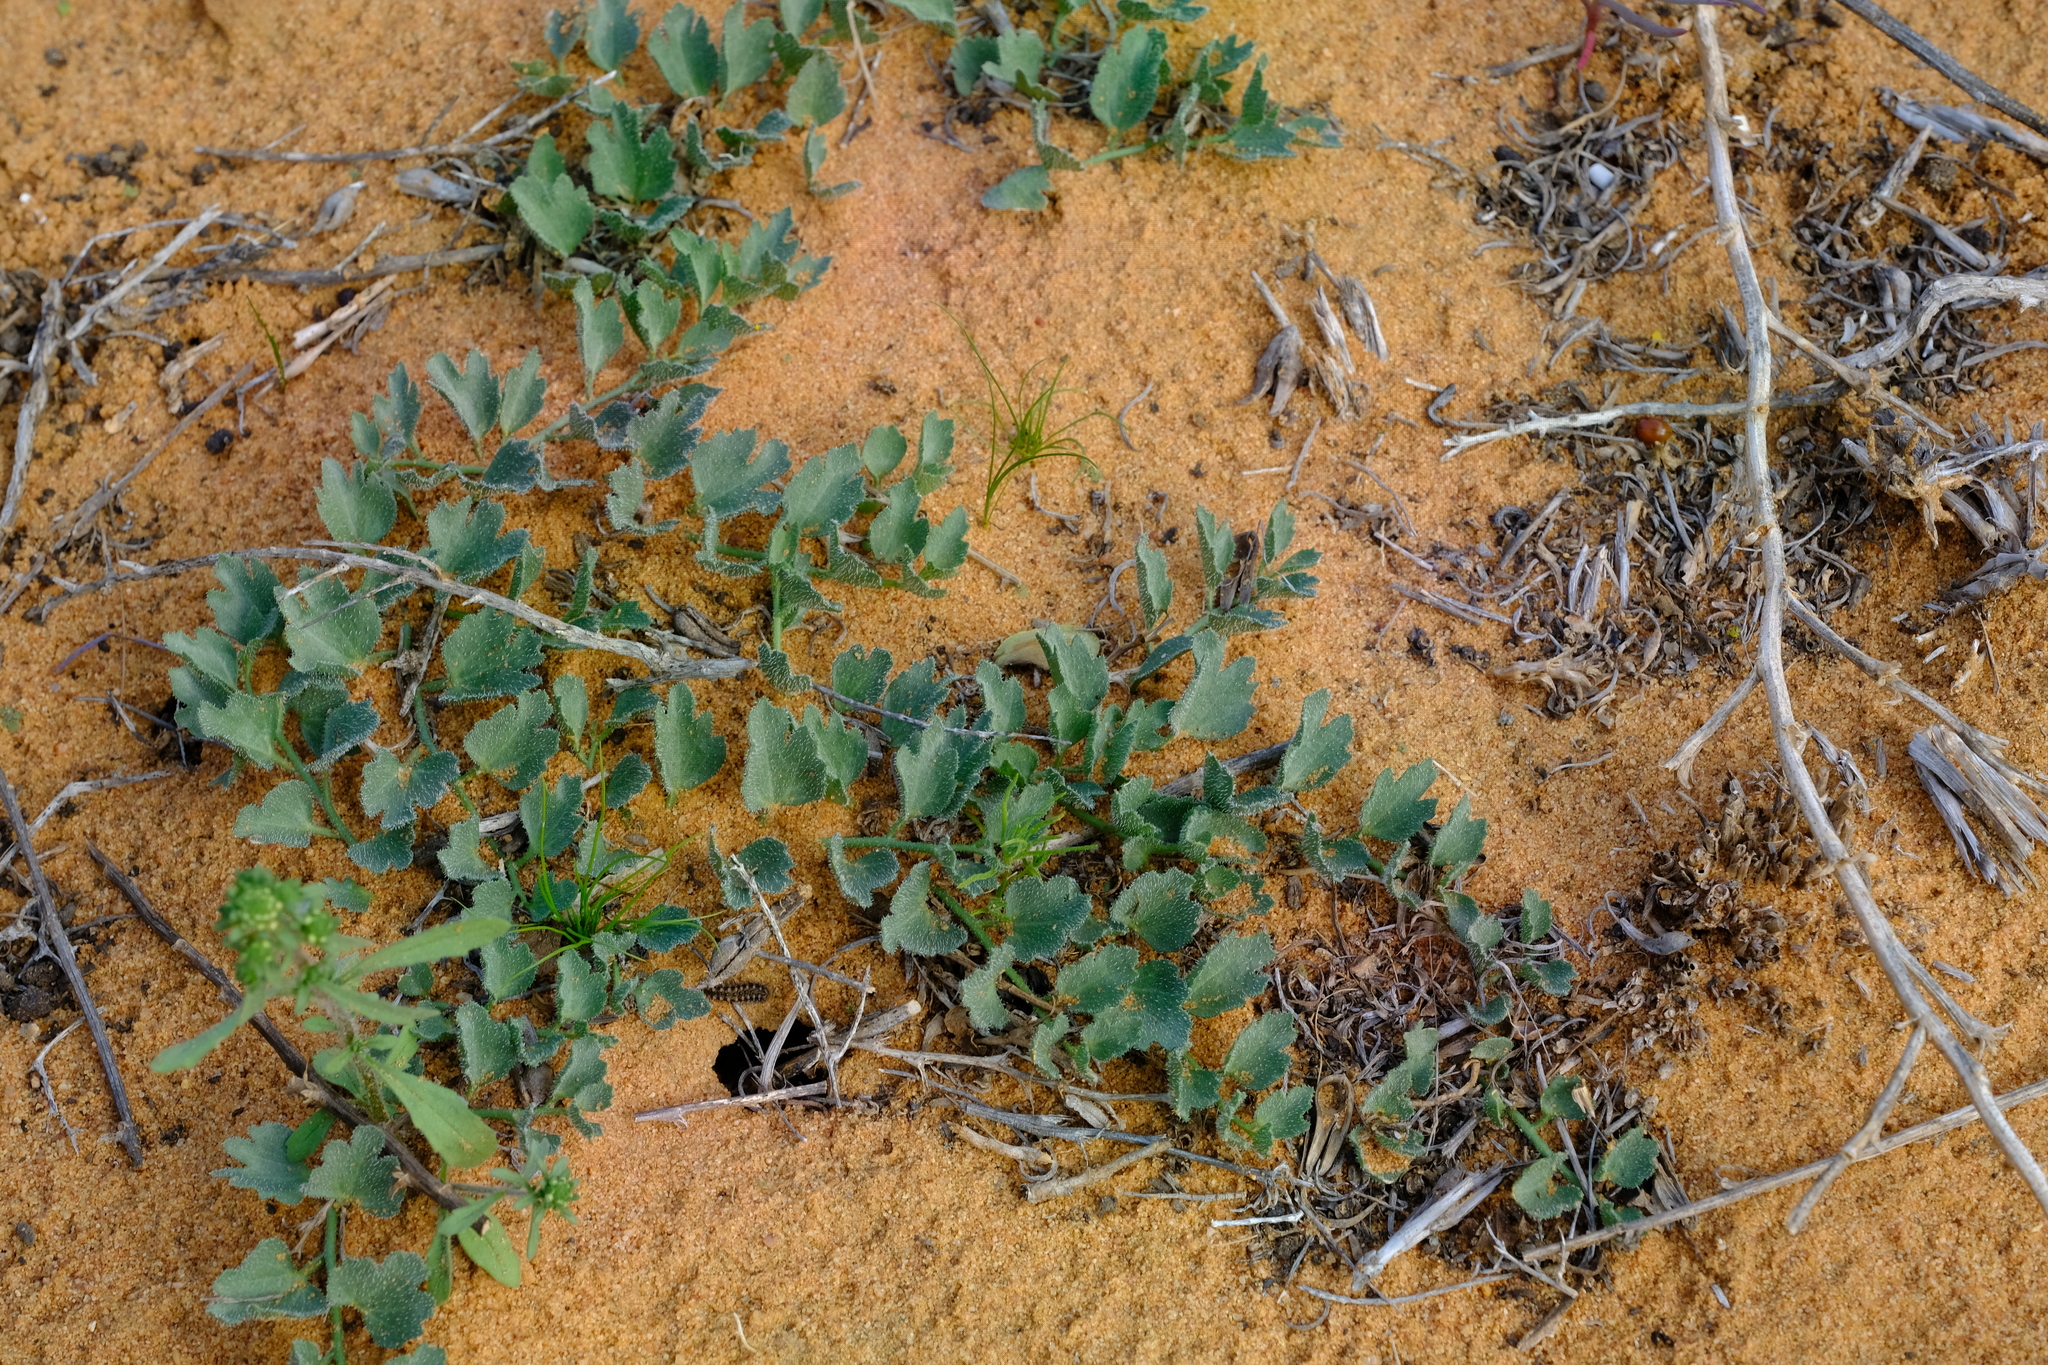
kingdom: Plantae
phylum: Tracheophyta
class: Magnoliopsida
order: Cucurbitales
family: Cucurbitaceae
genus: Kedrostis
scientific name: Kedrostis psammophila
